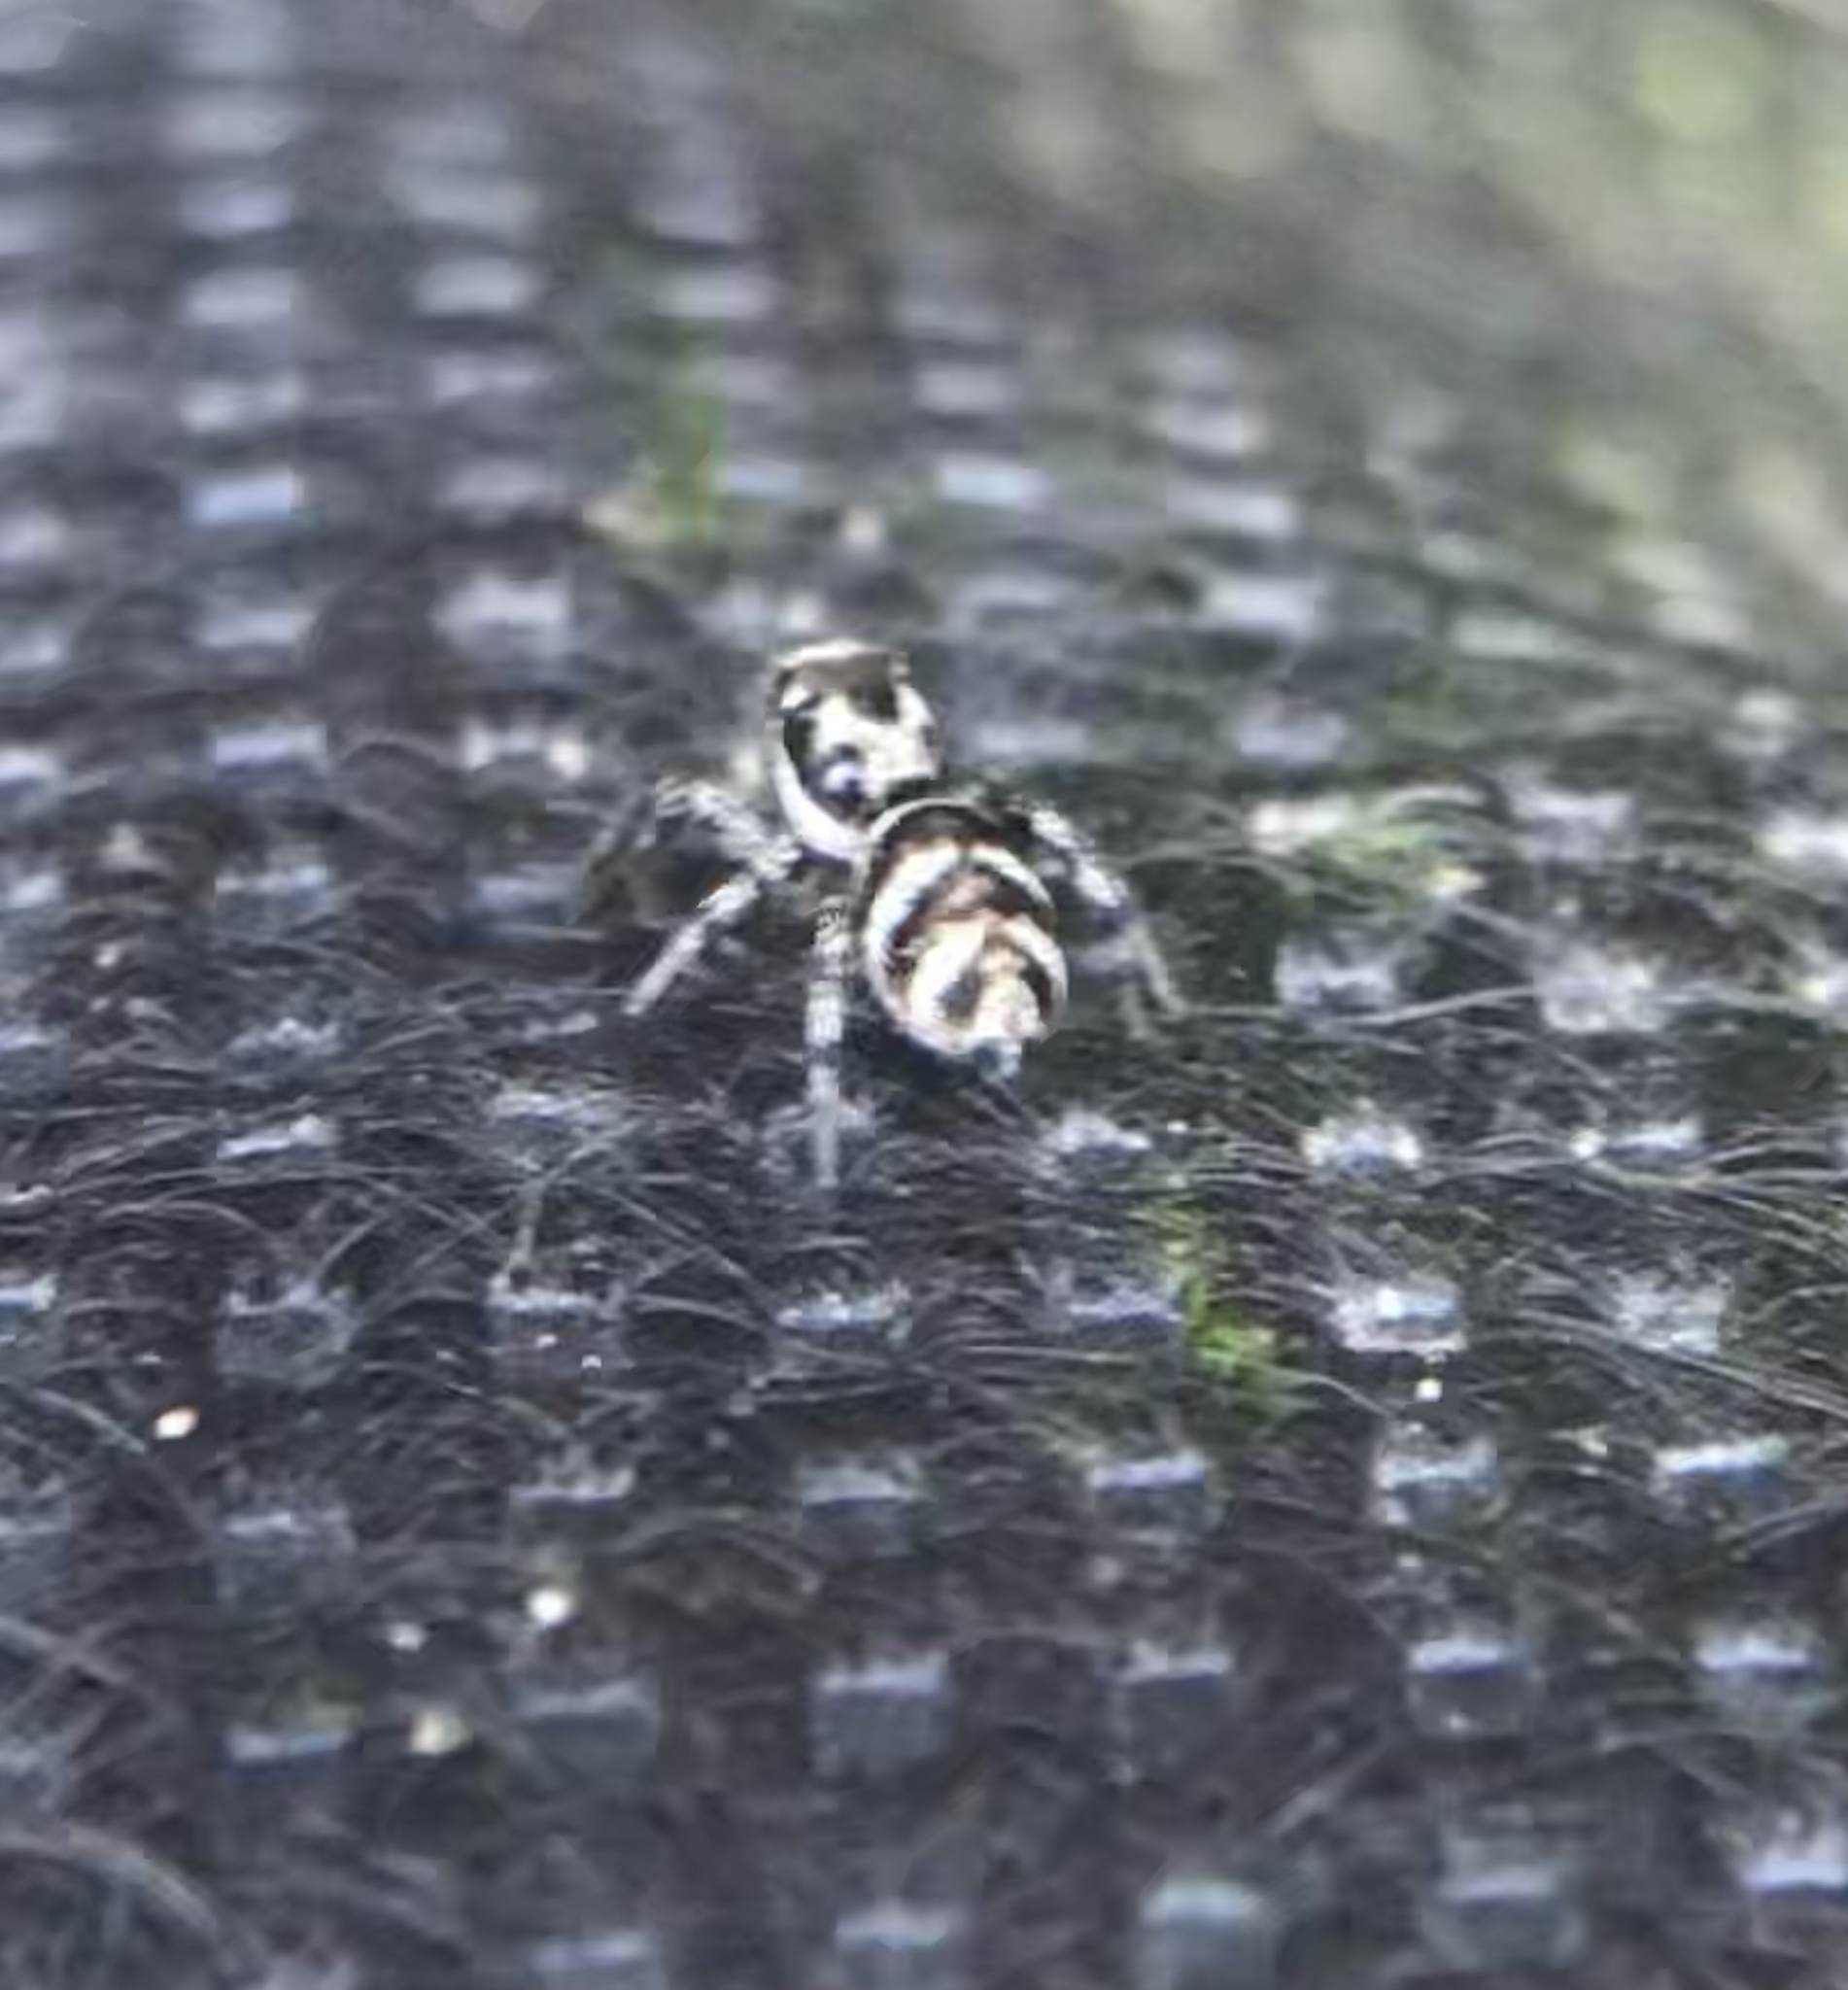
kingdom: Animalia
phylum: Arthropoda
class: Arachnida
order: Araneae
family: Salticidae
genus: Salticus
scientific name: Salticus scenicus
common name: Zebra jumper
